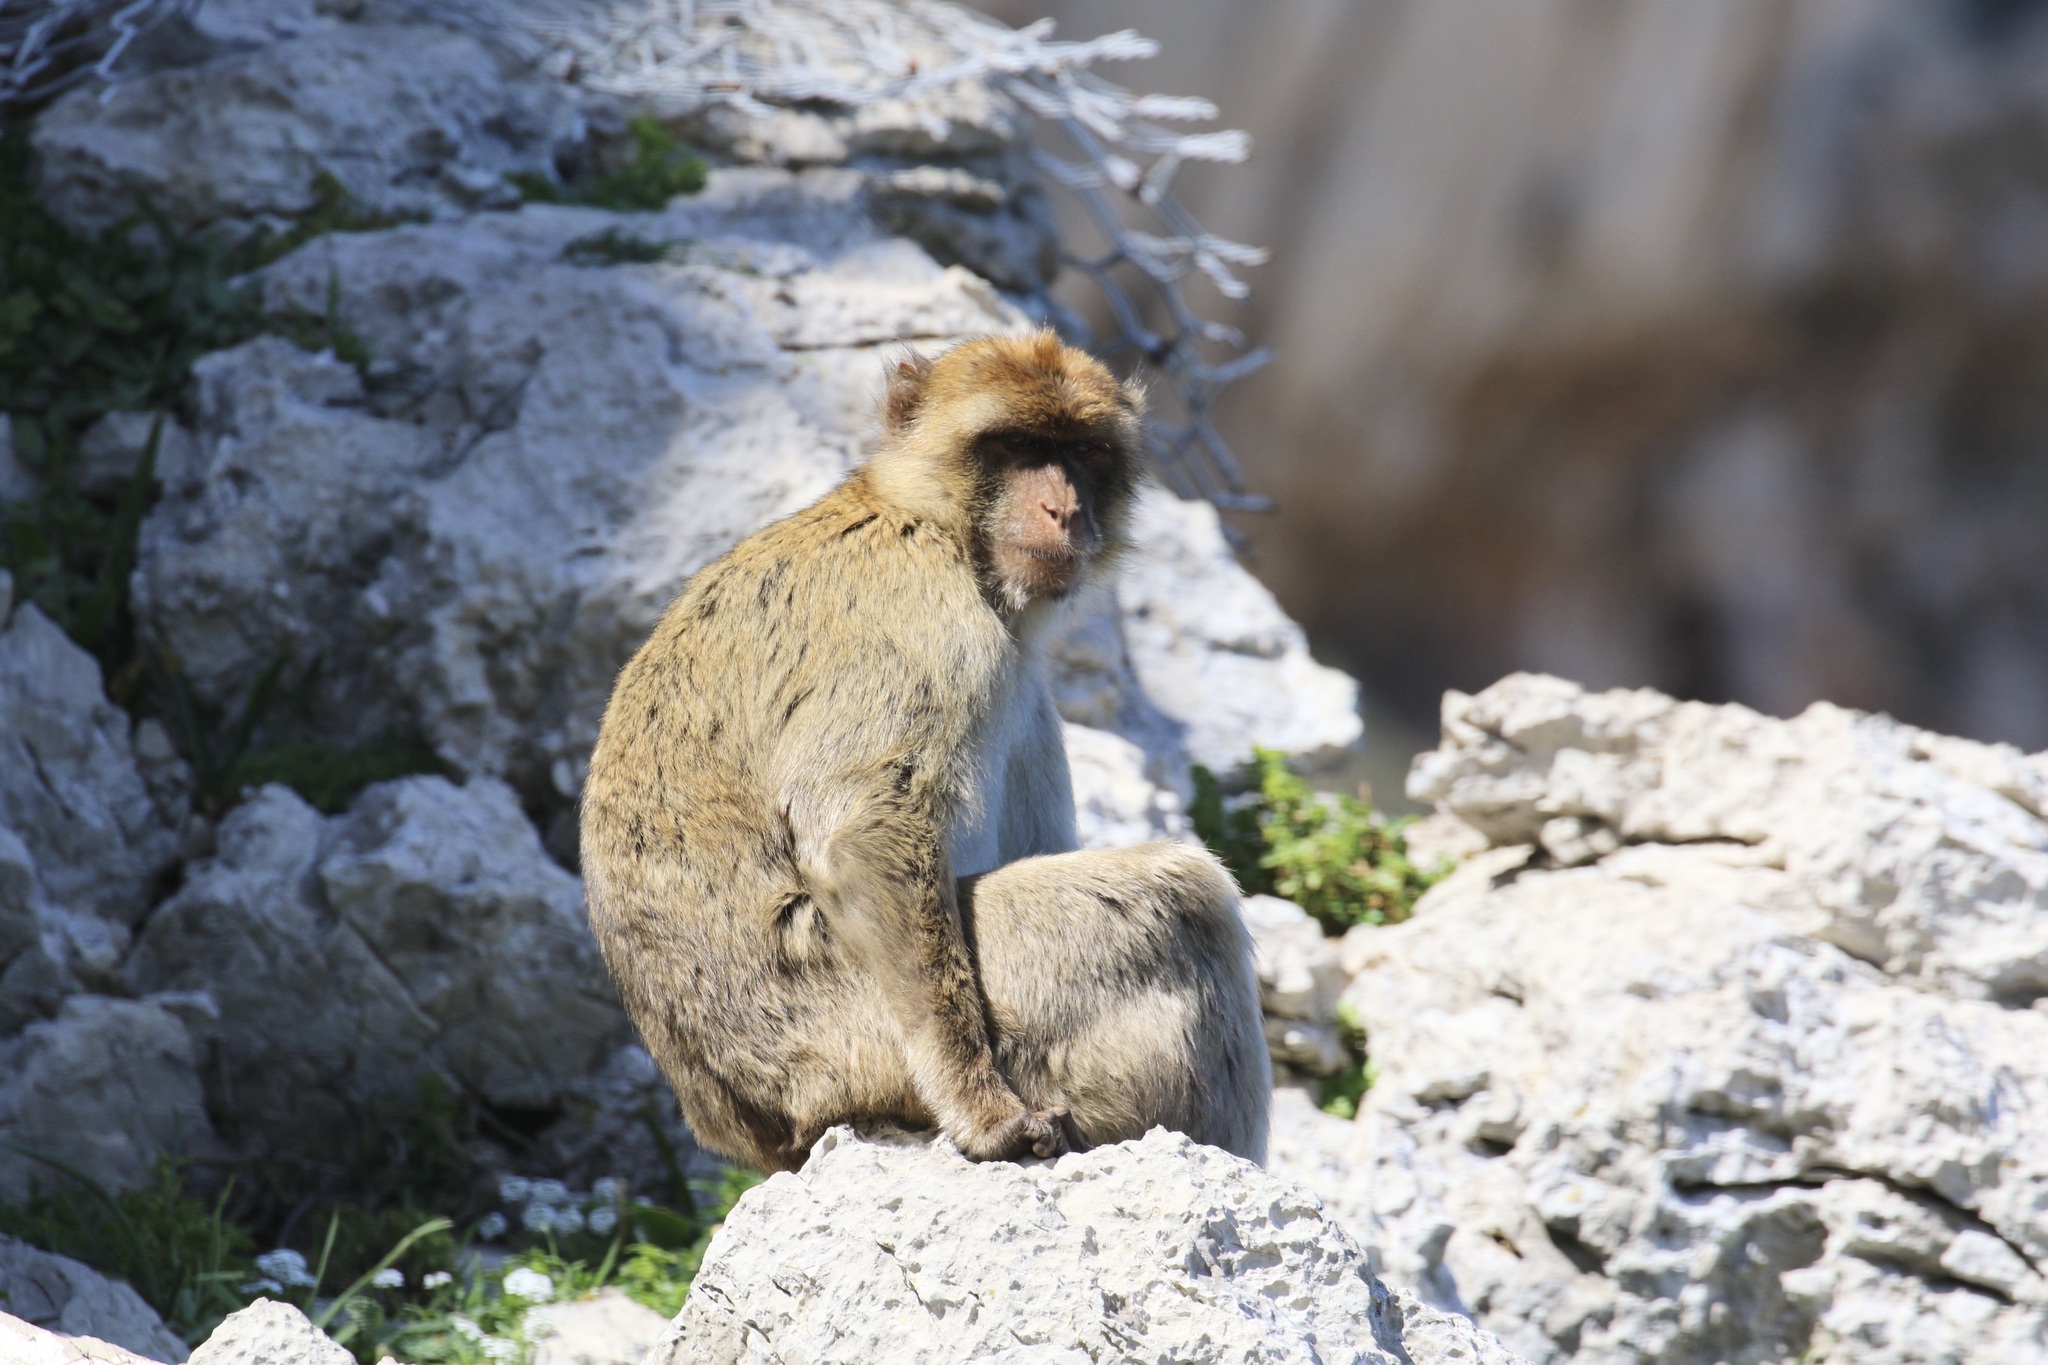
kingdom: Animalia
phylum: Chordata
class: Mammalia
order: Primates
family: Cercopithecidae
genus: Macaca
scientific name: Macaca sylvanus
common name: Barbary macaque
